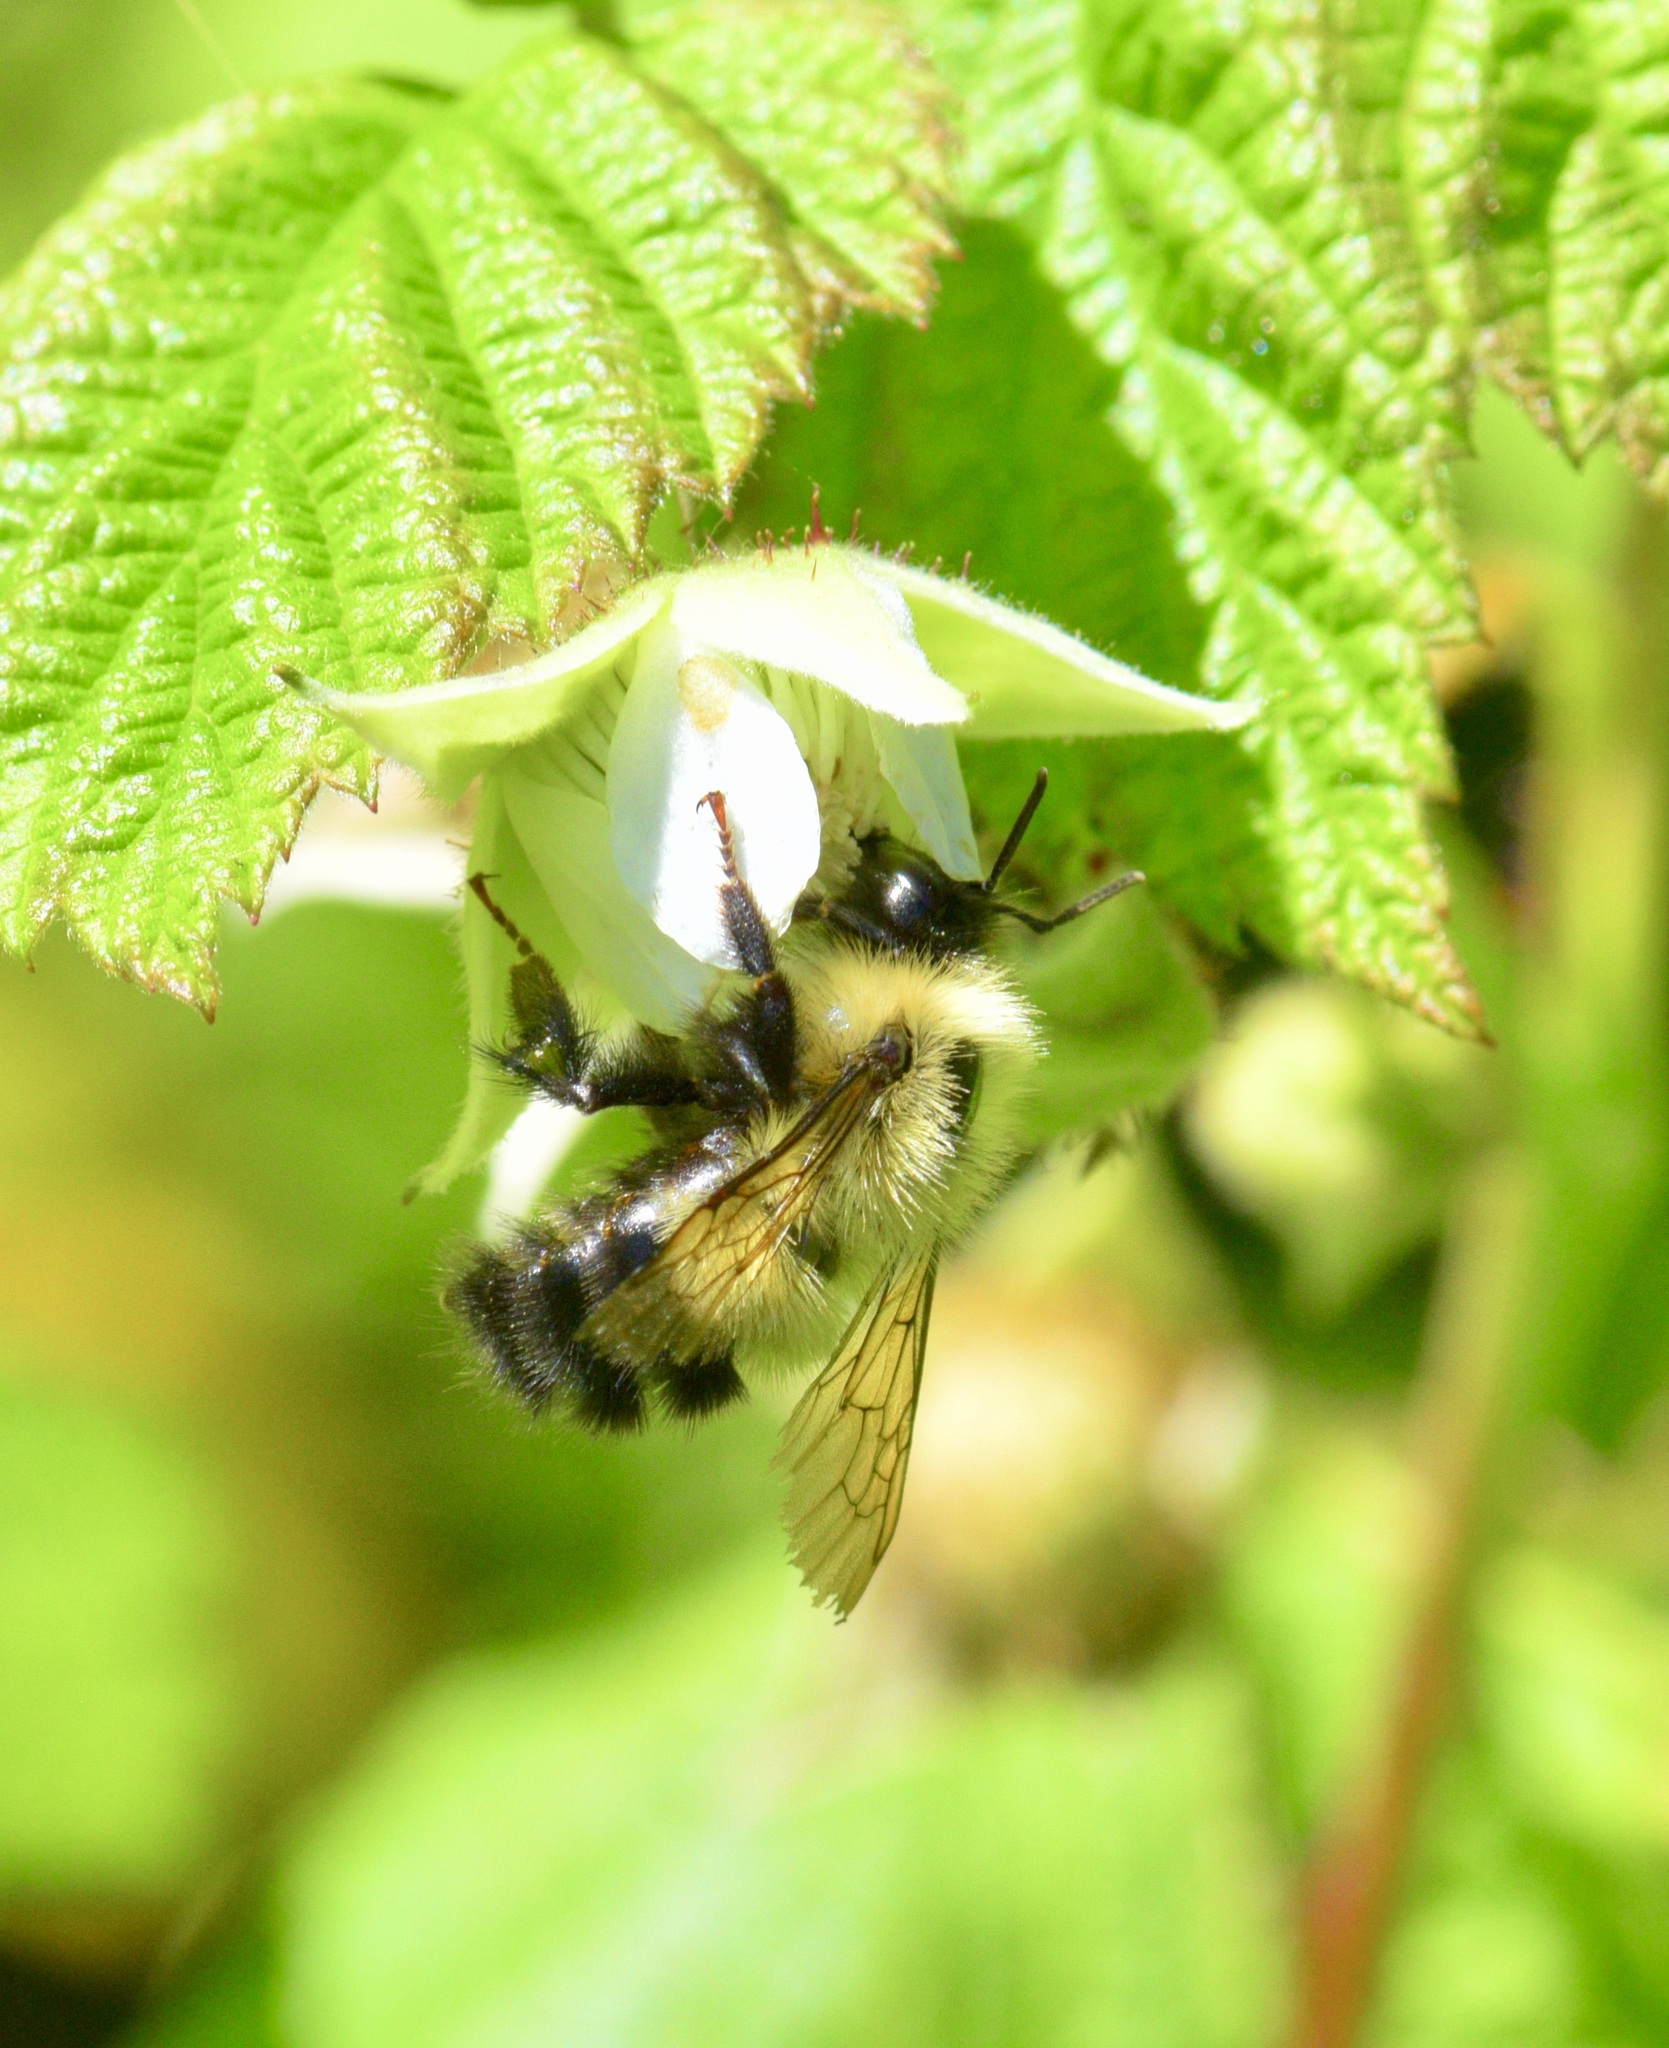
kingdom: Animalia
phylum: Arthropoda
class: Insecta
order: Hymenoptera
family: Apidae
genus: Bombus
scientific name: Bombus vagans
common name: Half-black bumble bee
